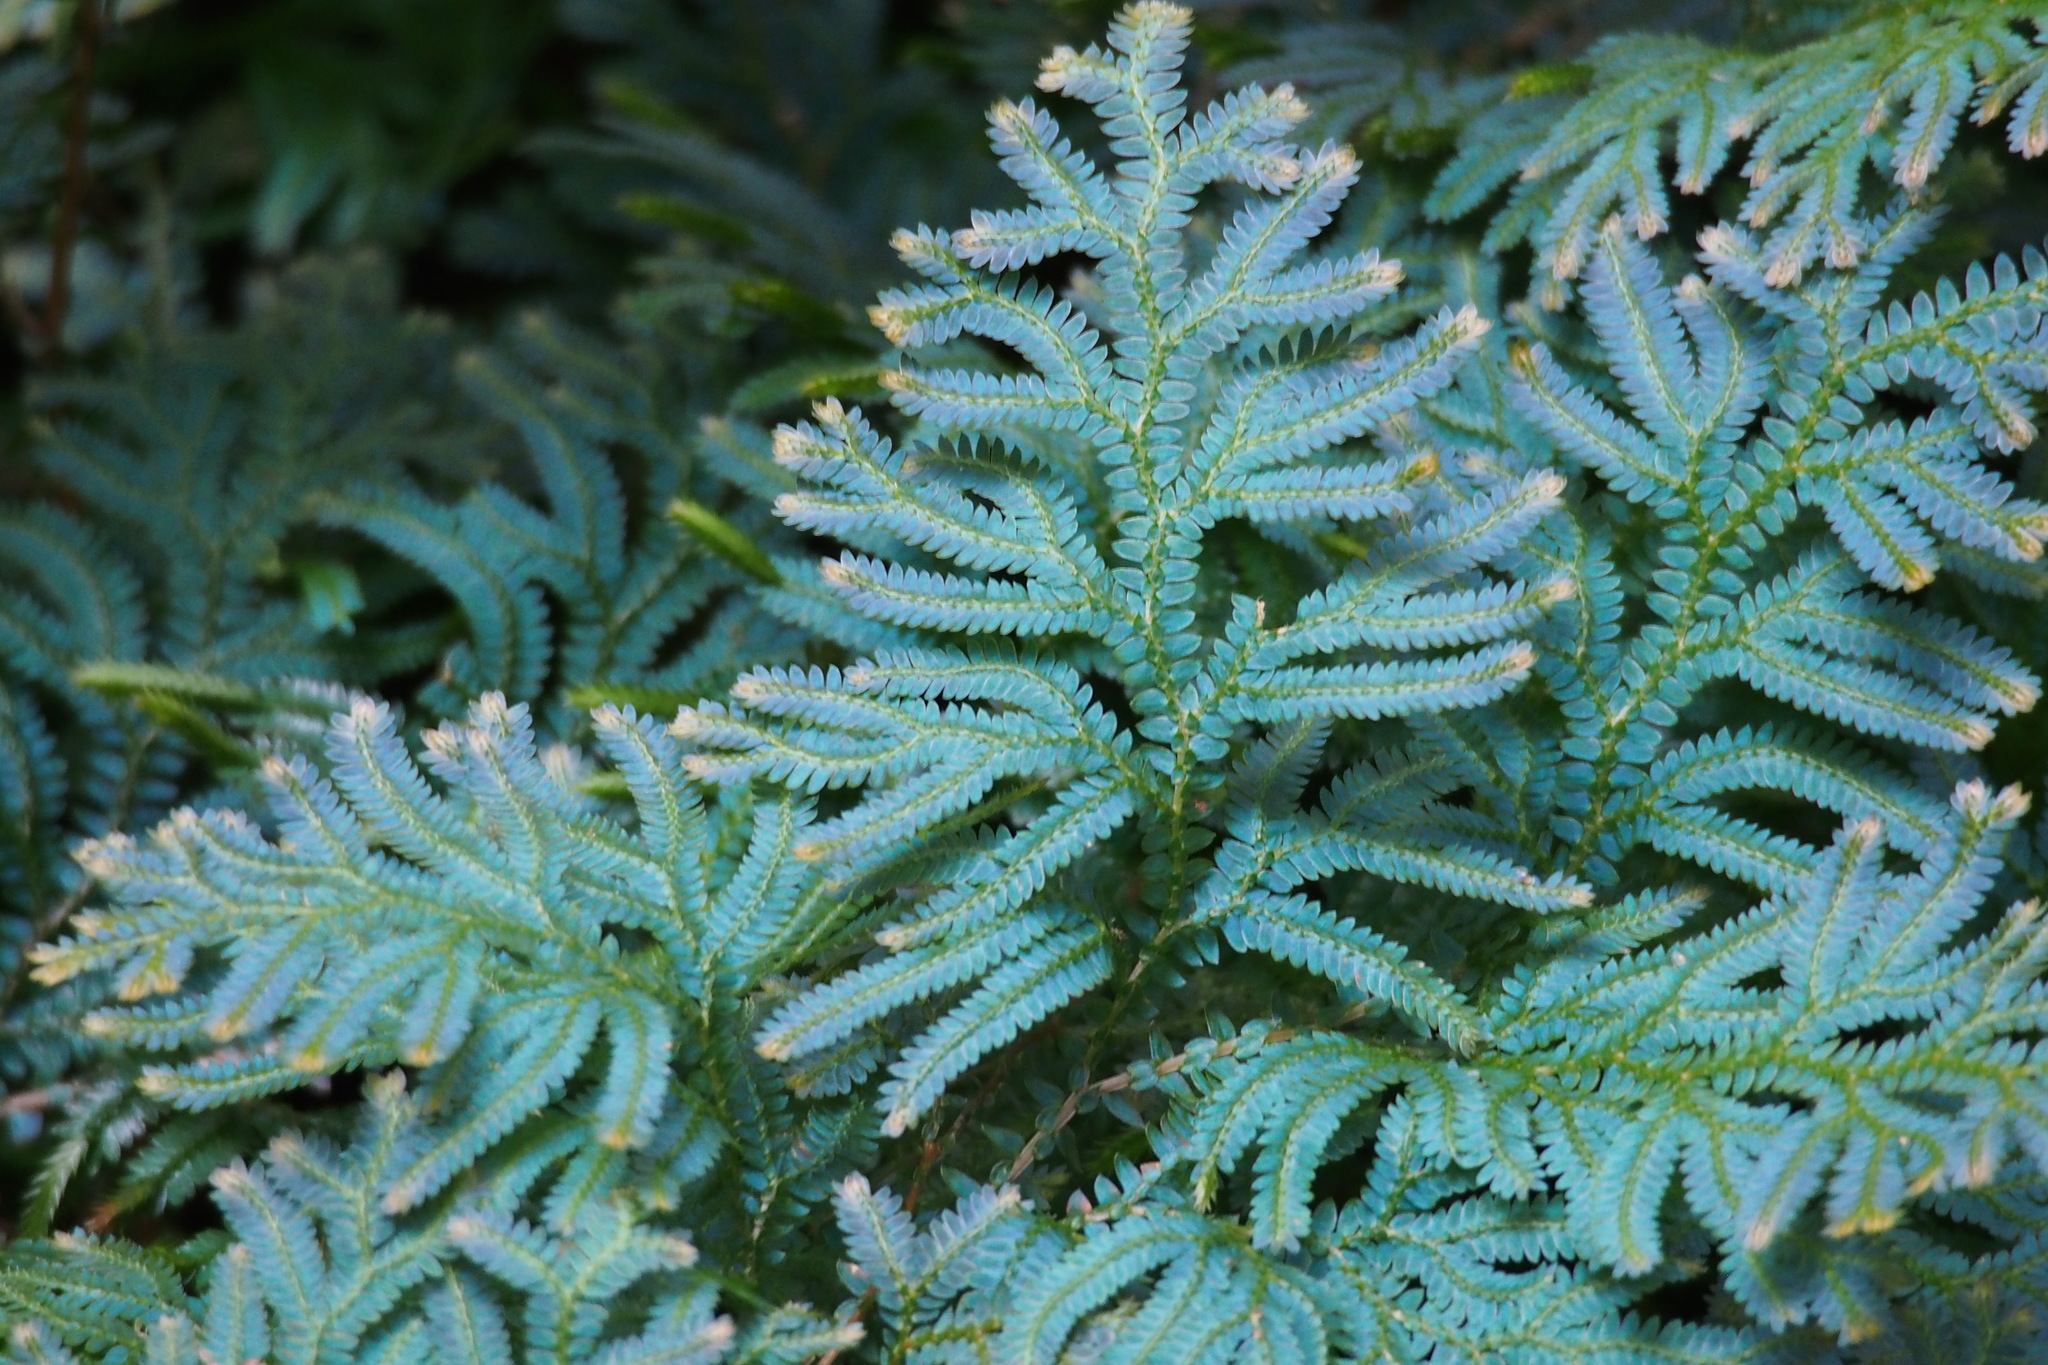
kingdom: Plantae
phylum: Tracheophyta
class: Lycopodiopsida
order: Selaginellales
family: Selaginellaceae
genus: Selaginella
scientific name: Selaginella uncinata
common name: Blue spikemoss
